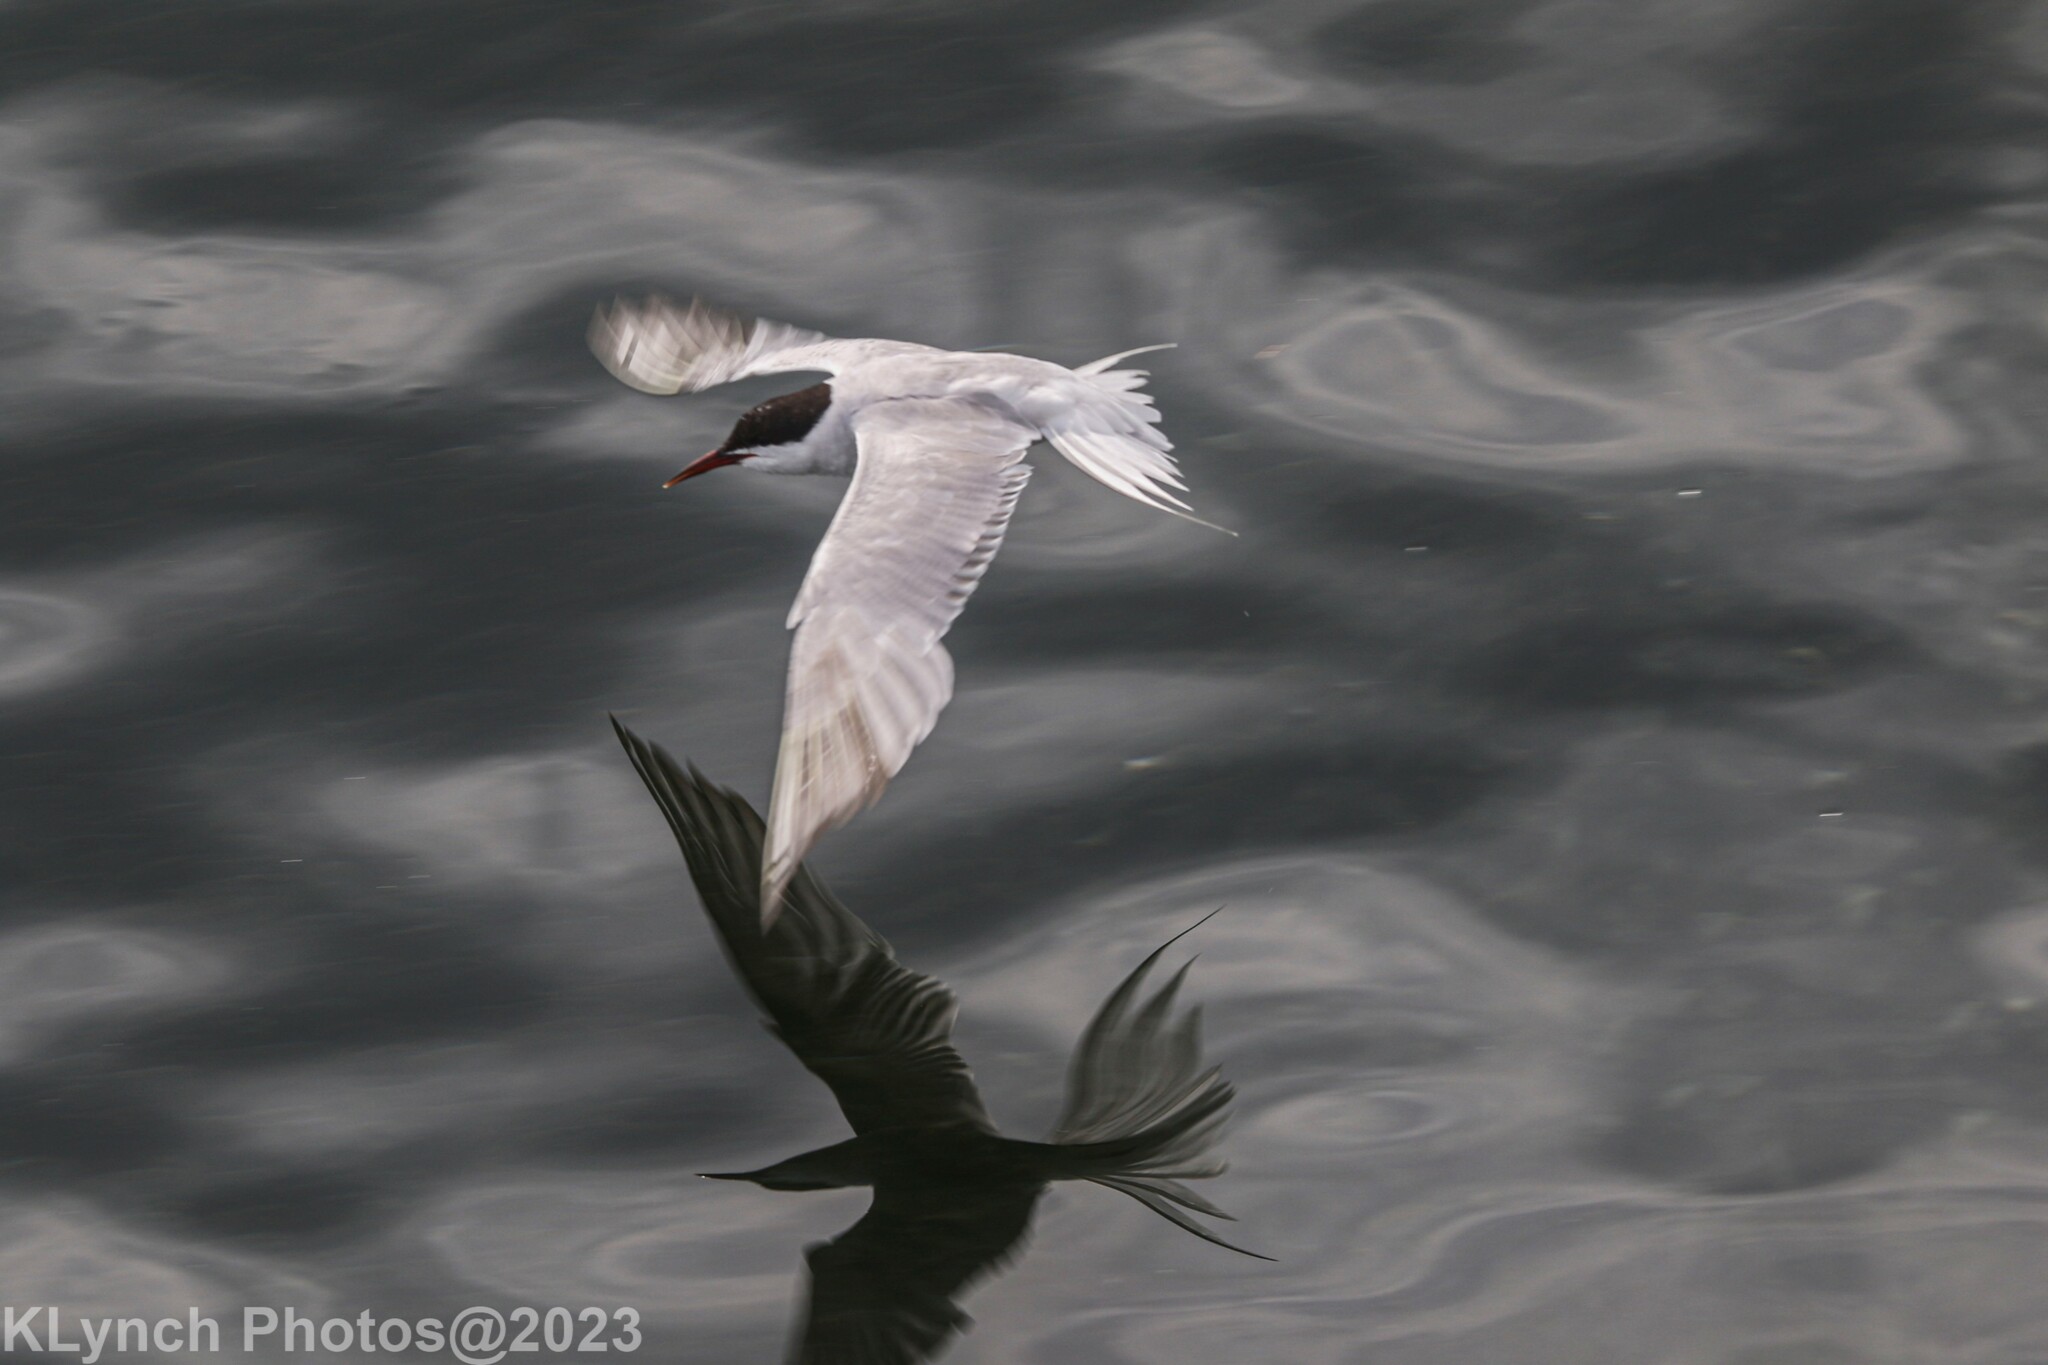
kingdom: Animalia
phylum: Chordata
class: Aves
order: Charadriiformes
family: Laridae
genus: Sterna
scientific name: Sterna hirundo
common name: Common tern
